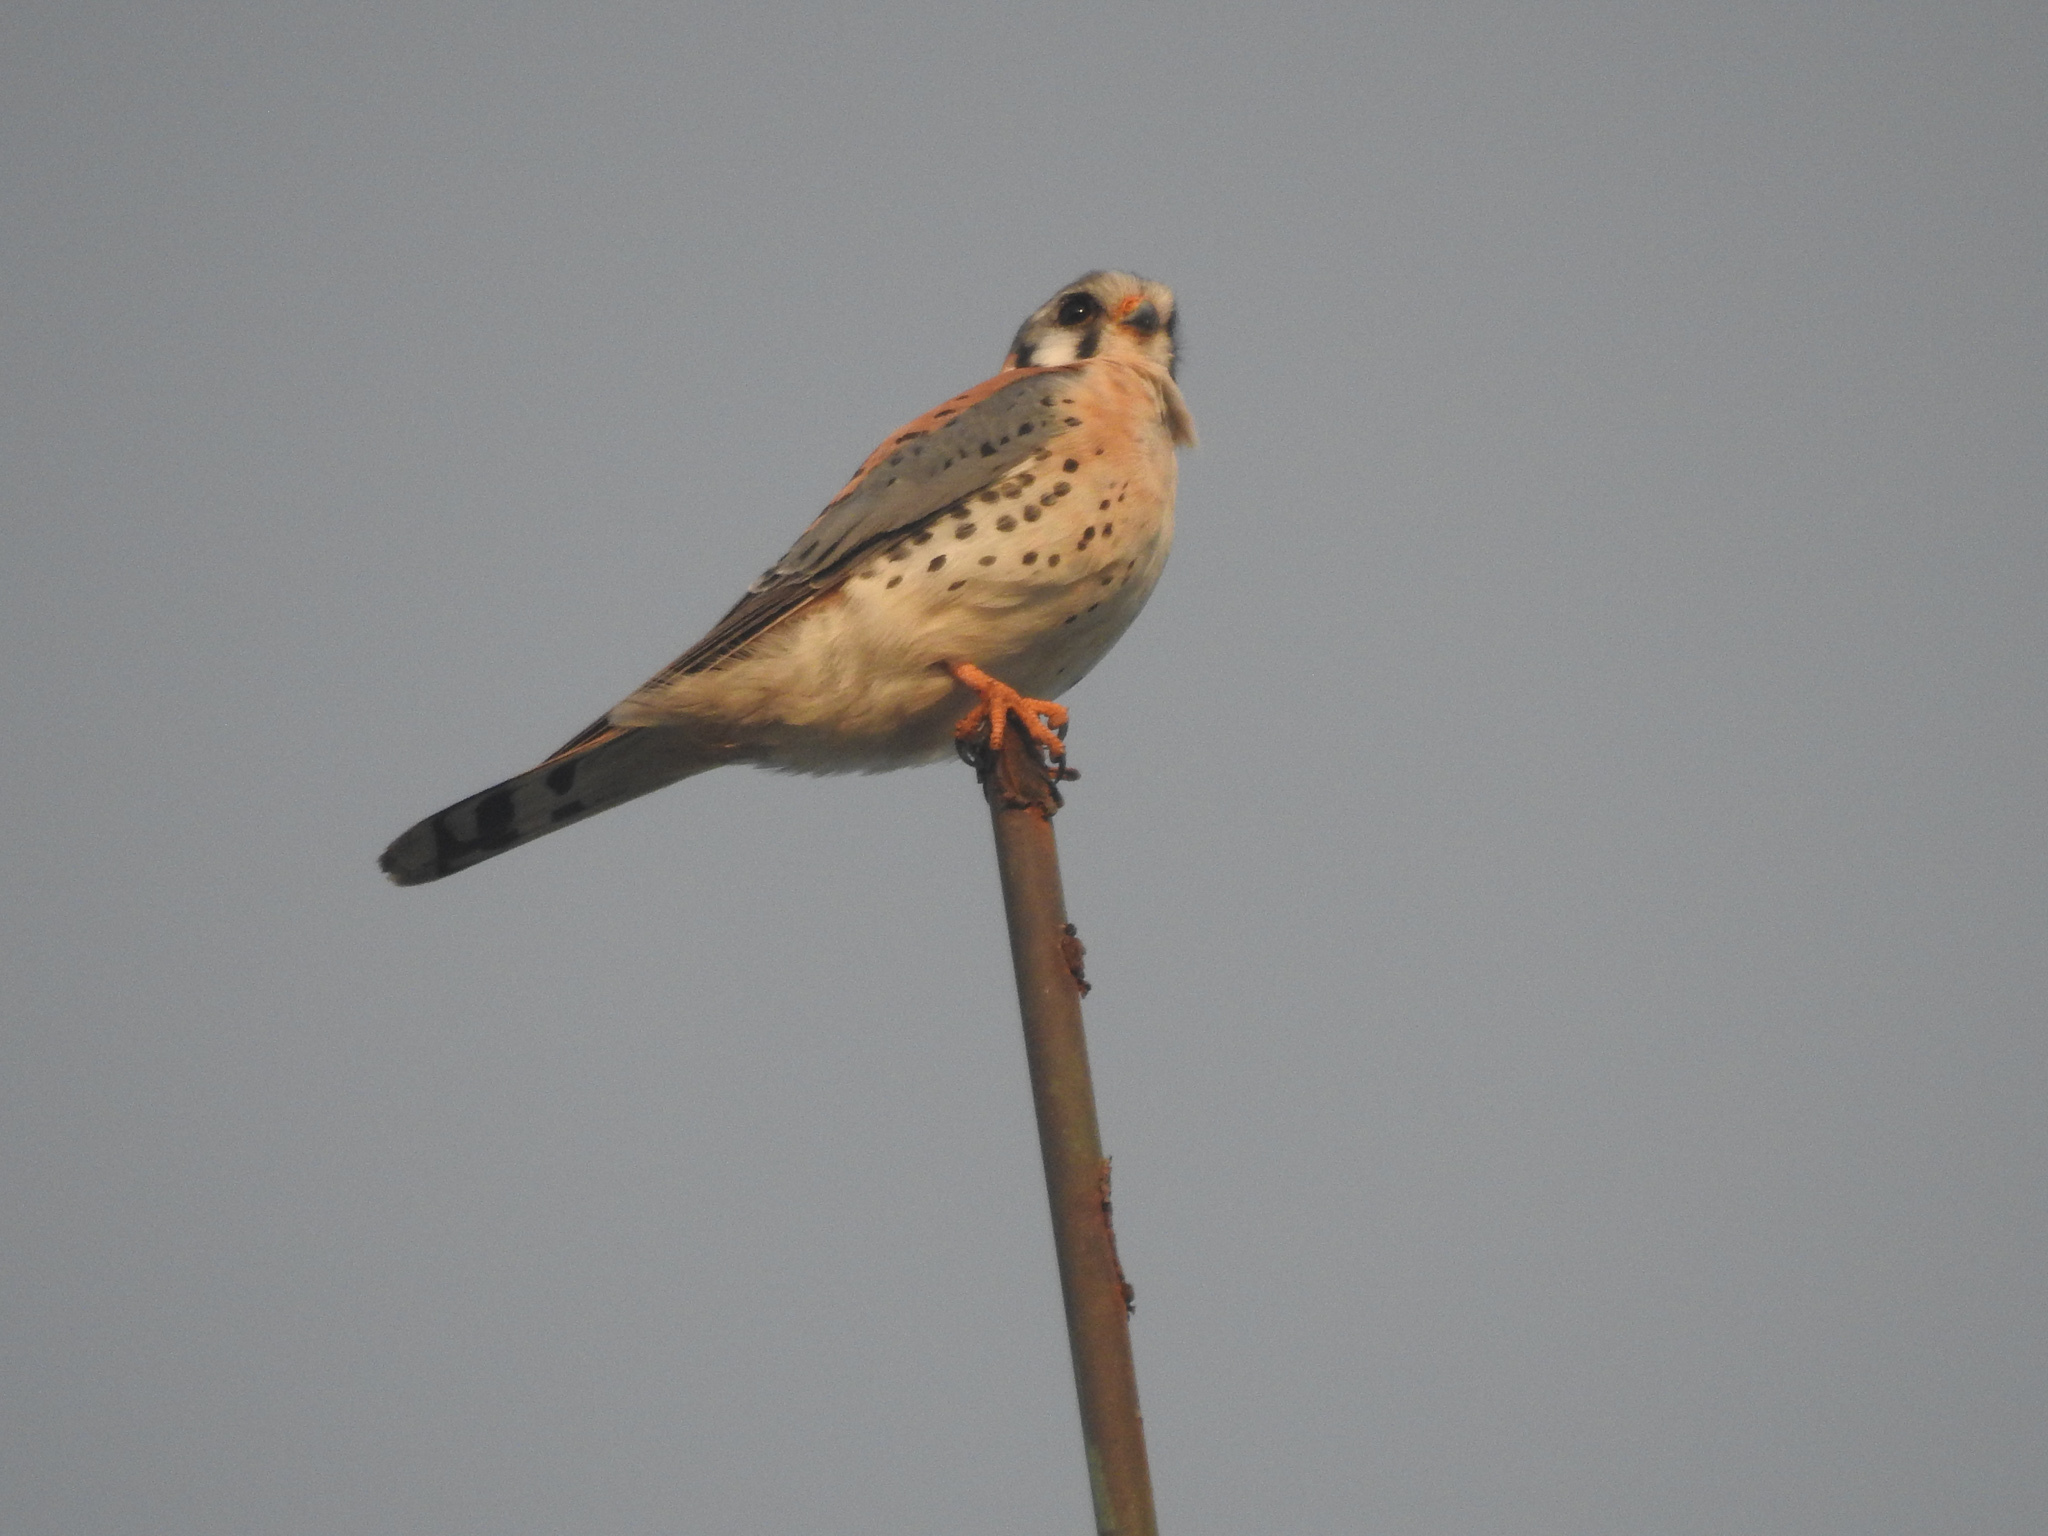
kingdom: Animalia
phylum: Chordata
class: Aves
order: Falconiformes
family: Falconidae
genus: Falco
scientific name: Falco sparverius
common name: American kestrel
